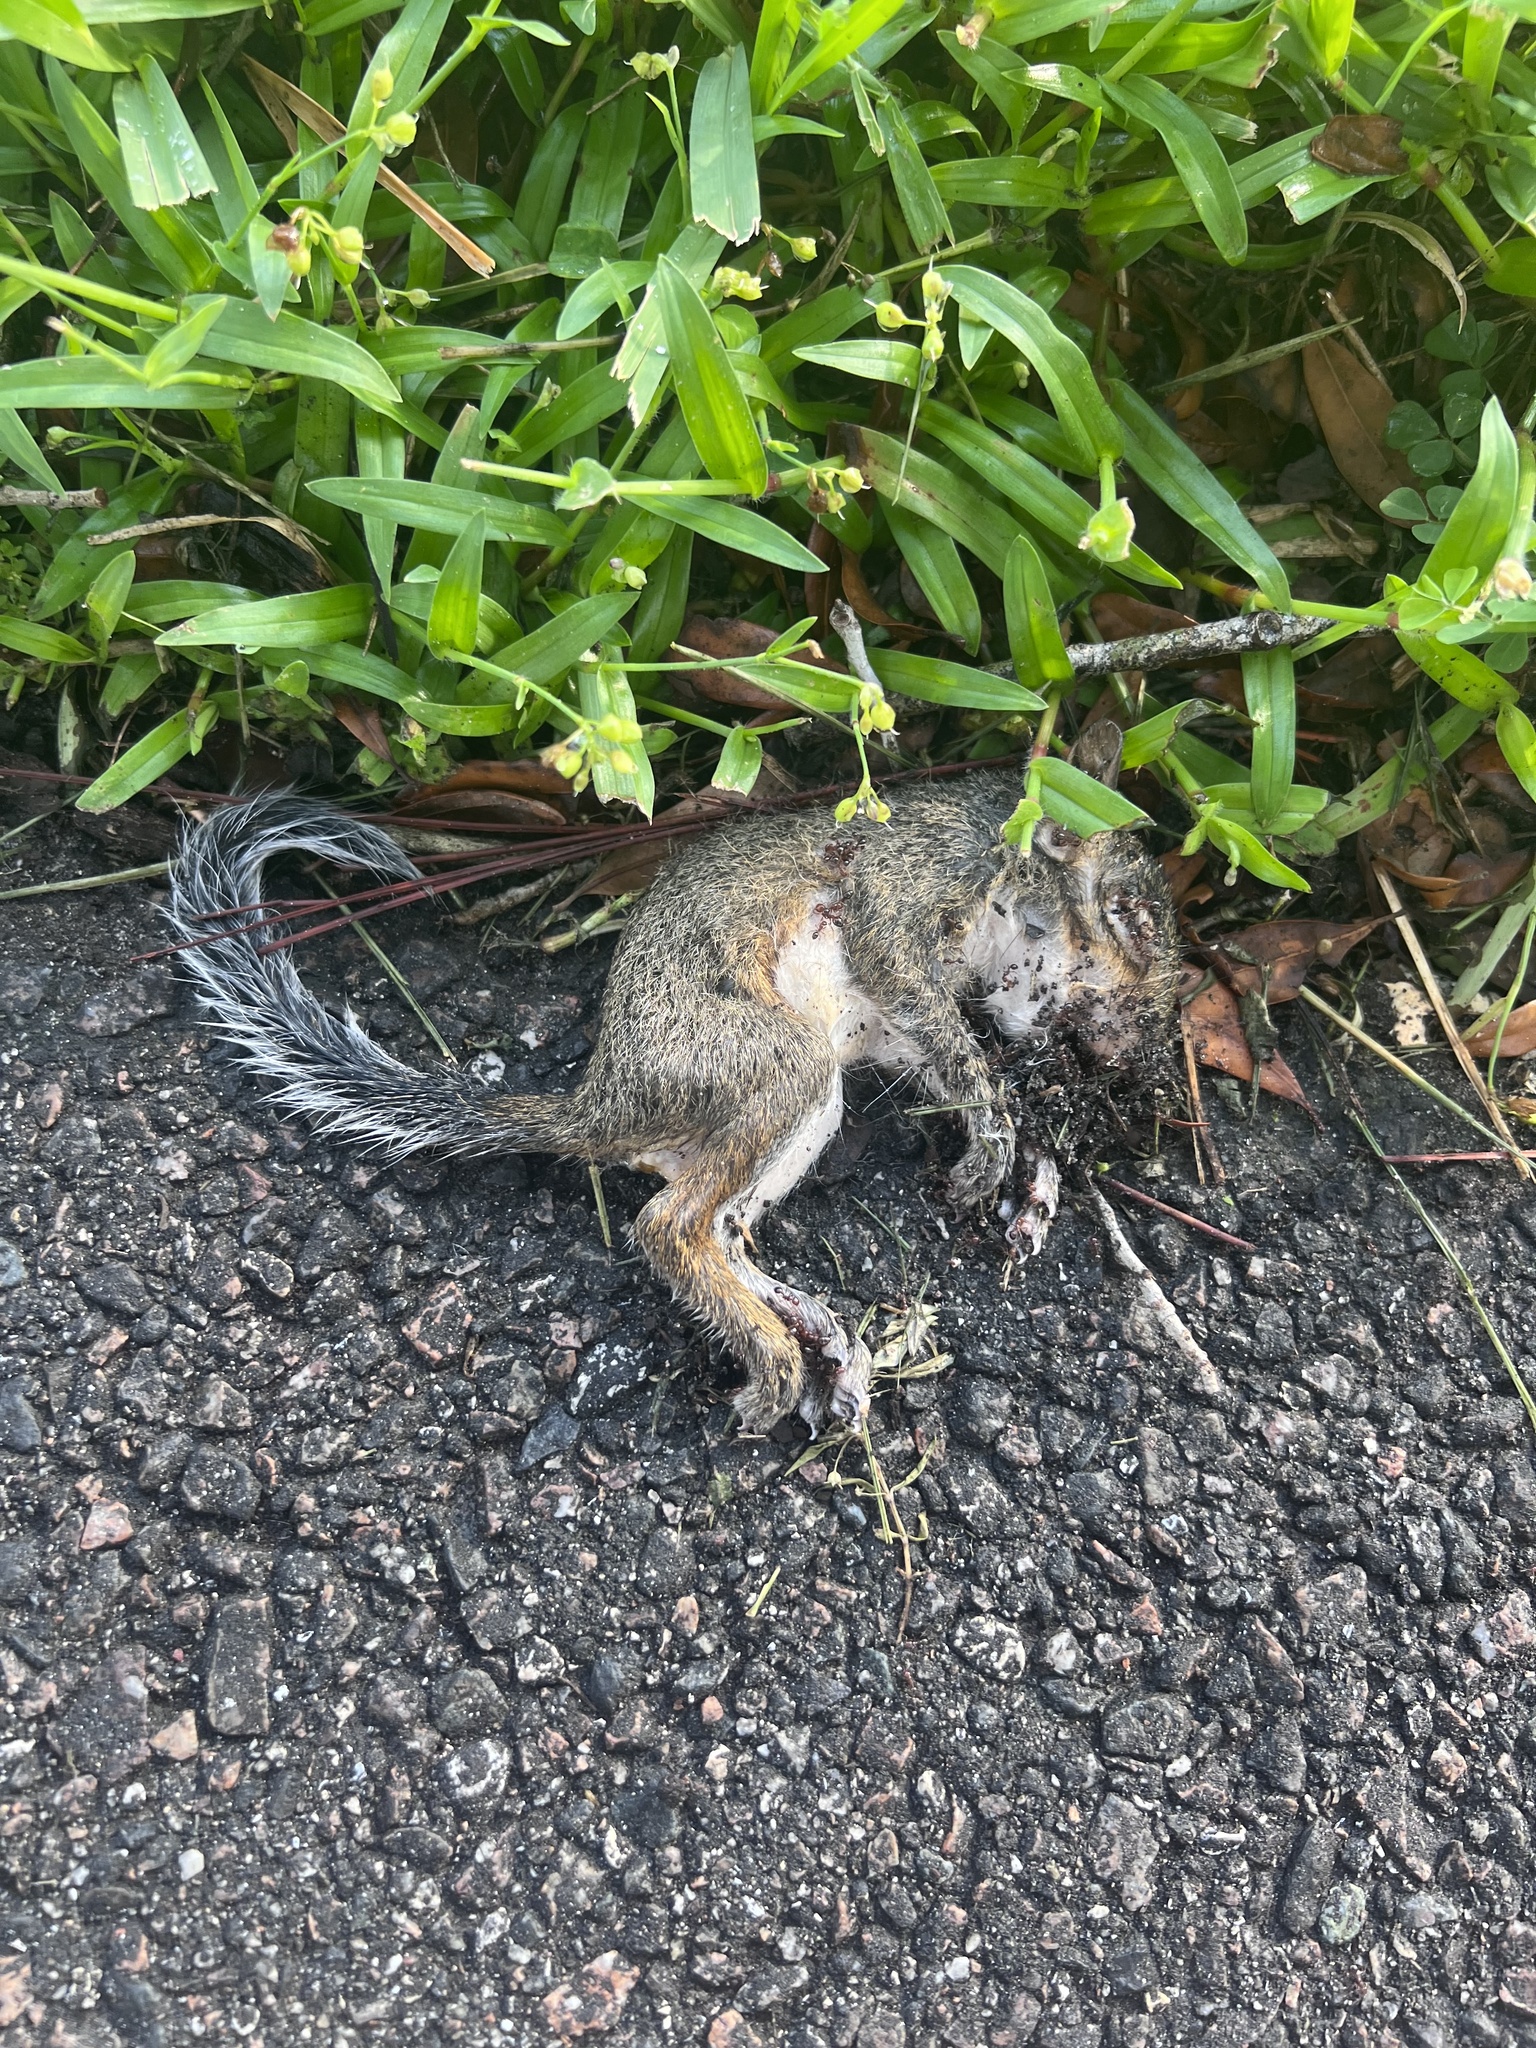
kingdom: Animalia
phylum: Chordata
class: Mammalia
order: Rodentia
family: Sciuridae
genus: Sciurus
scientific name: Sciurus carolinensis
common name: Eastern gray squirrel
